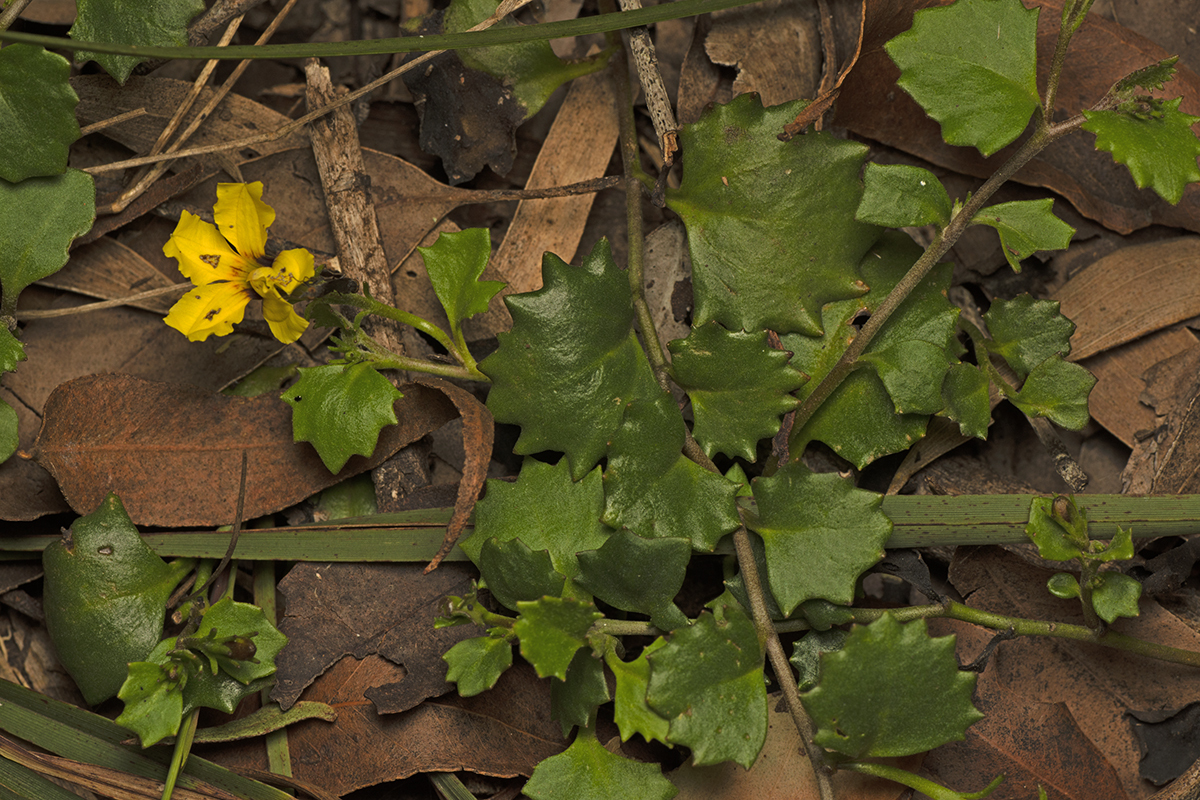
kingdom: Plantae
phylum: Tracheophyta
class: Magnoliopsida
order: Asterales
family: Goodeniaceae
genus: Goodenia
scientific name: Goodenia rotundifolia
